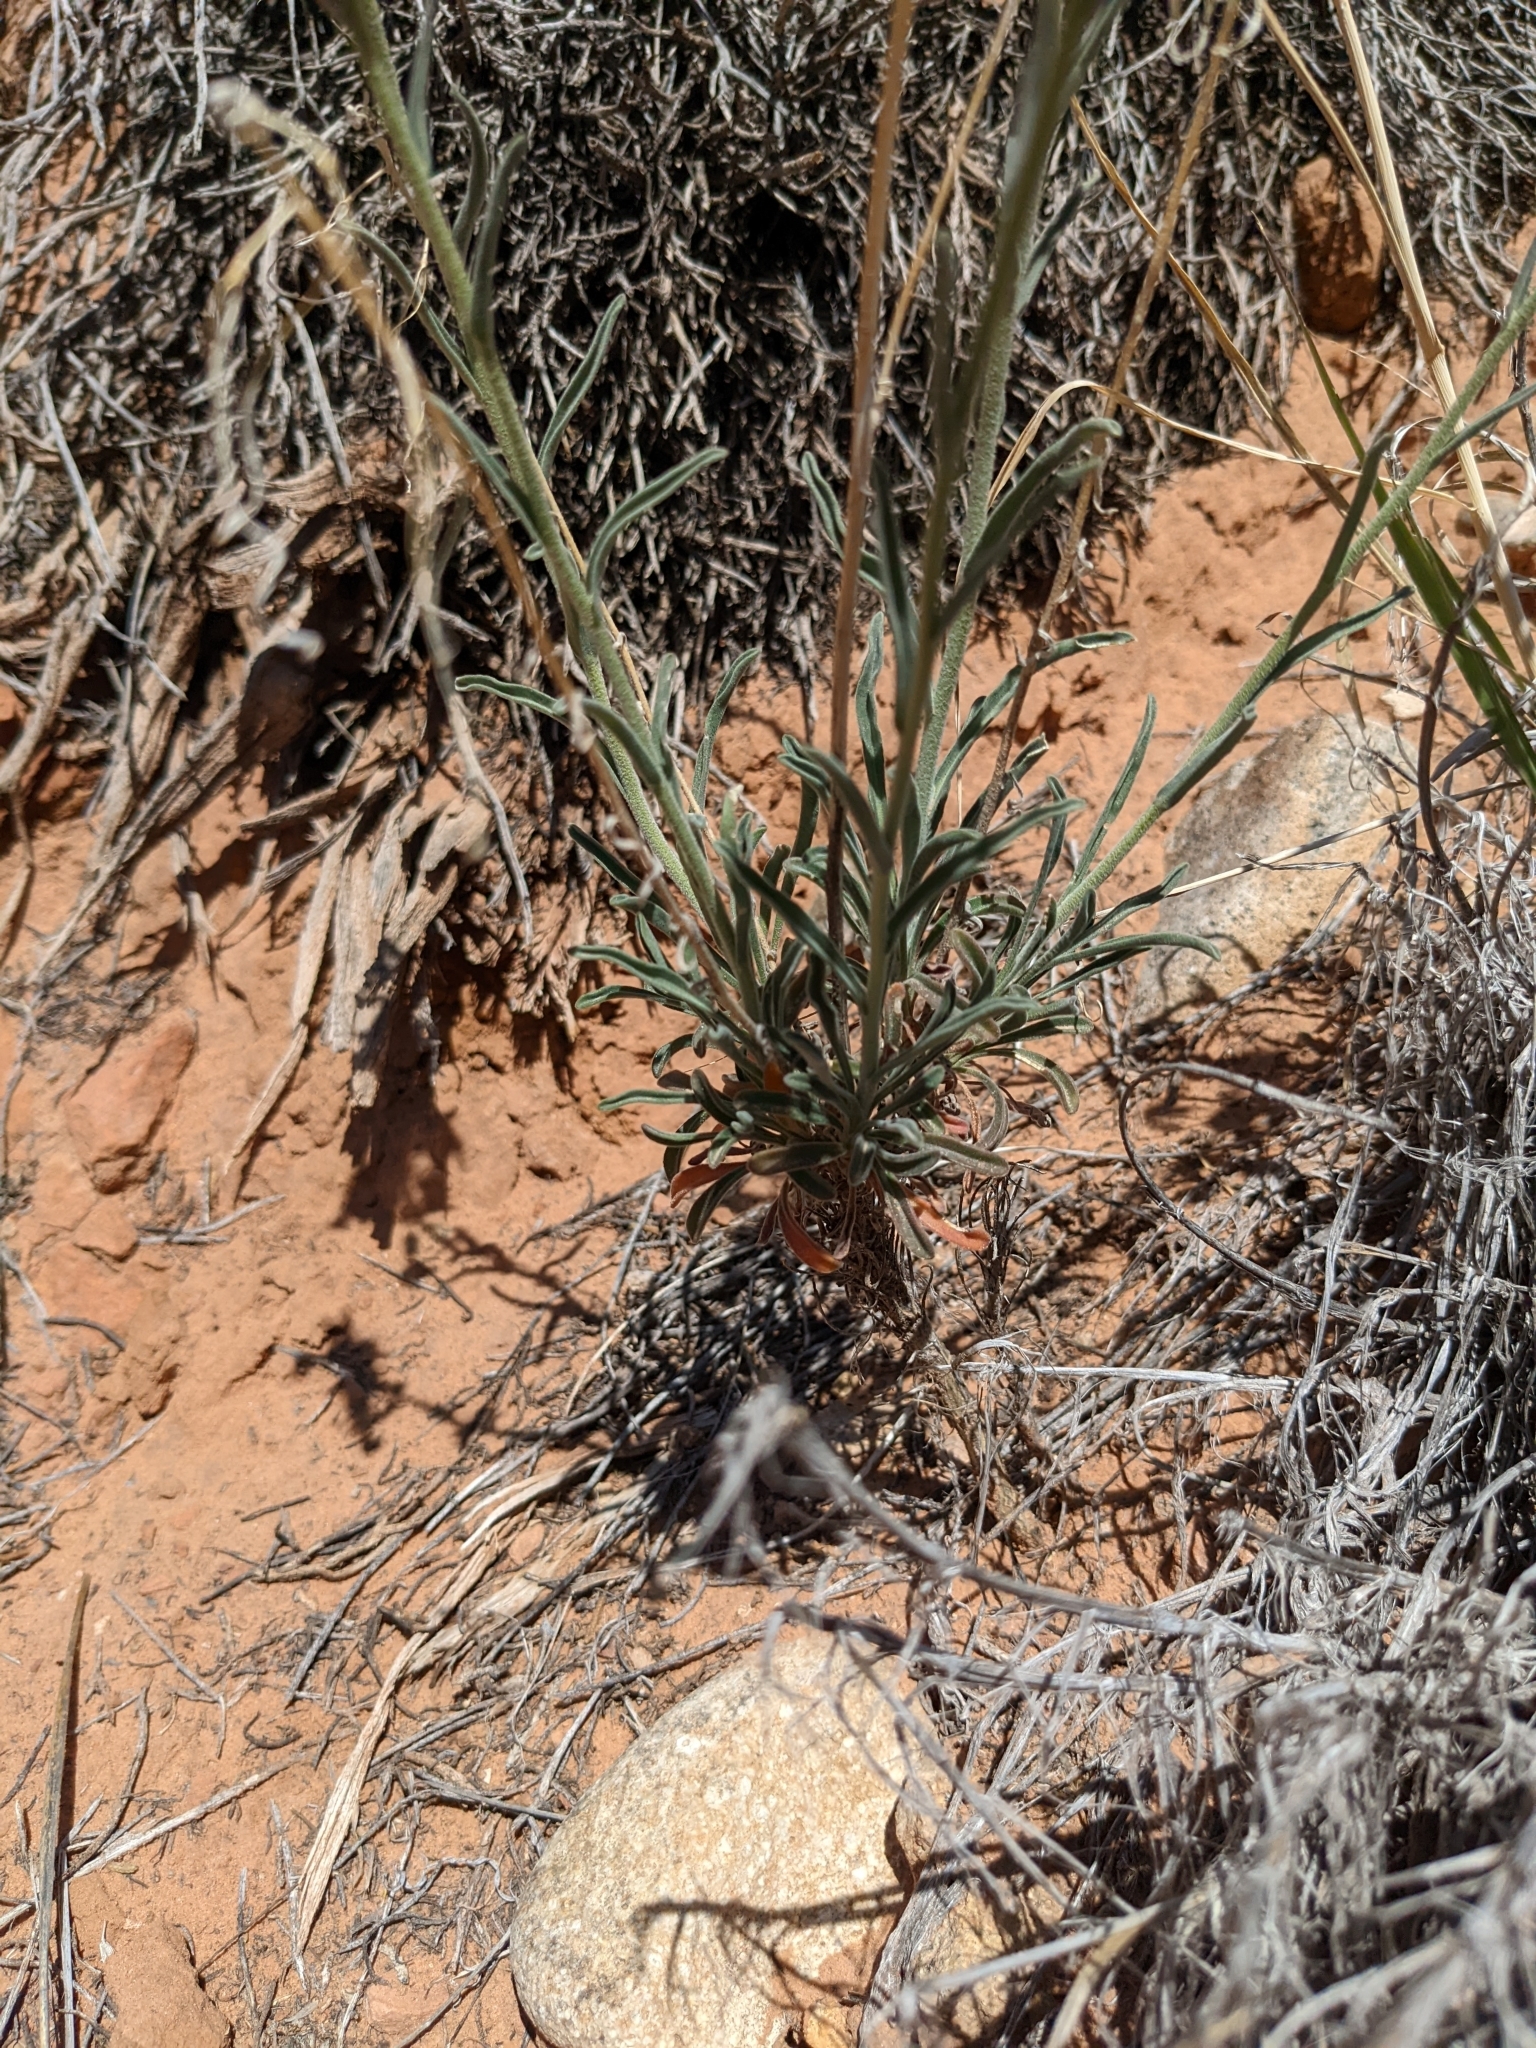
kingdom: Plantae
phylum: Tracheophyta
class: Magnoliopsida
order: Brassicales
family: Brassicaceae
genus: Boechera
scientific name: Boechera formosa
